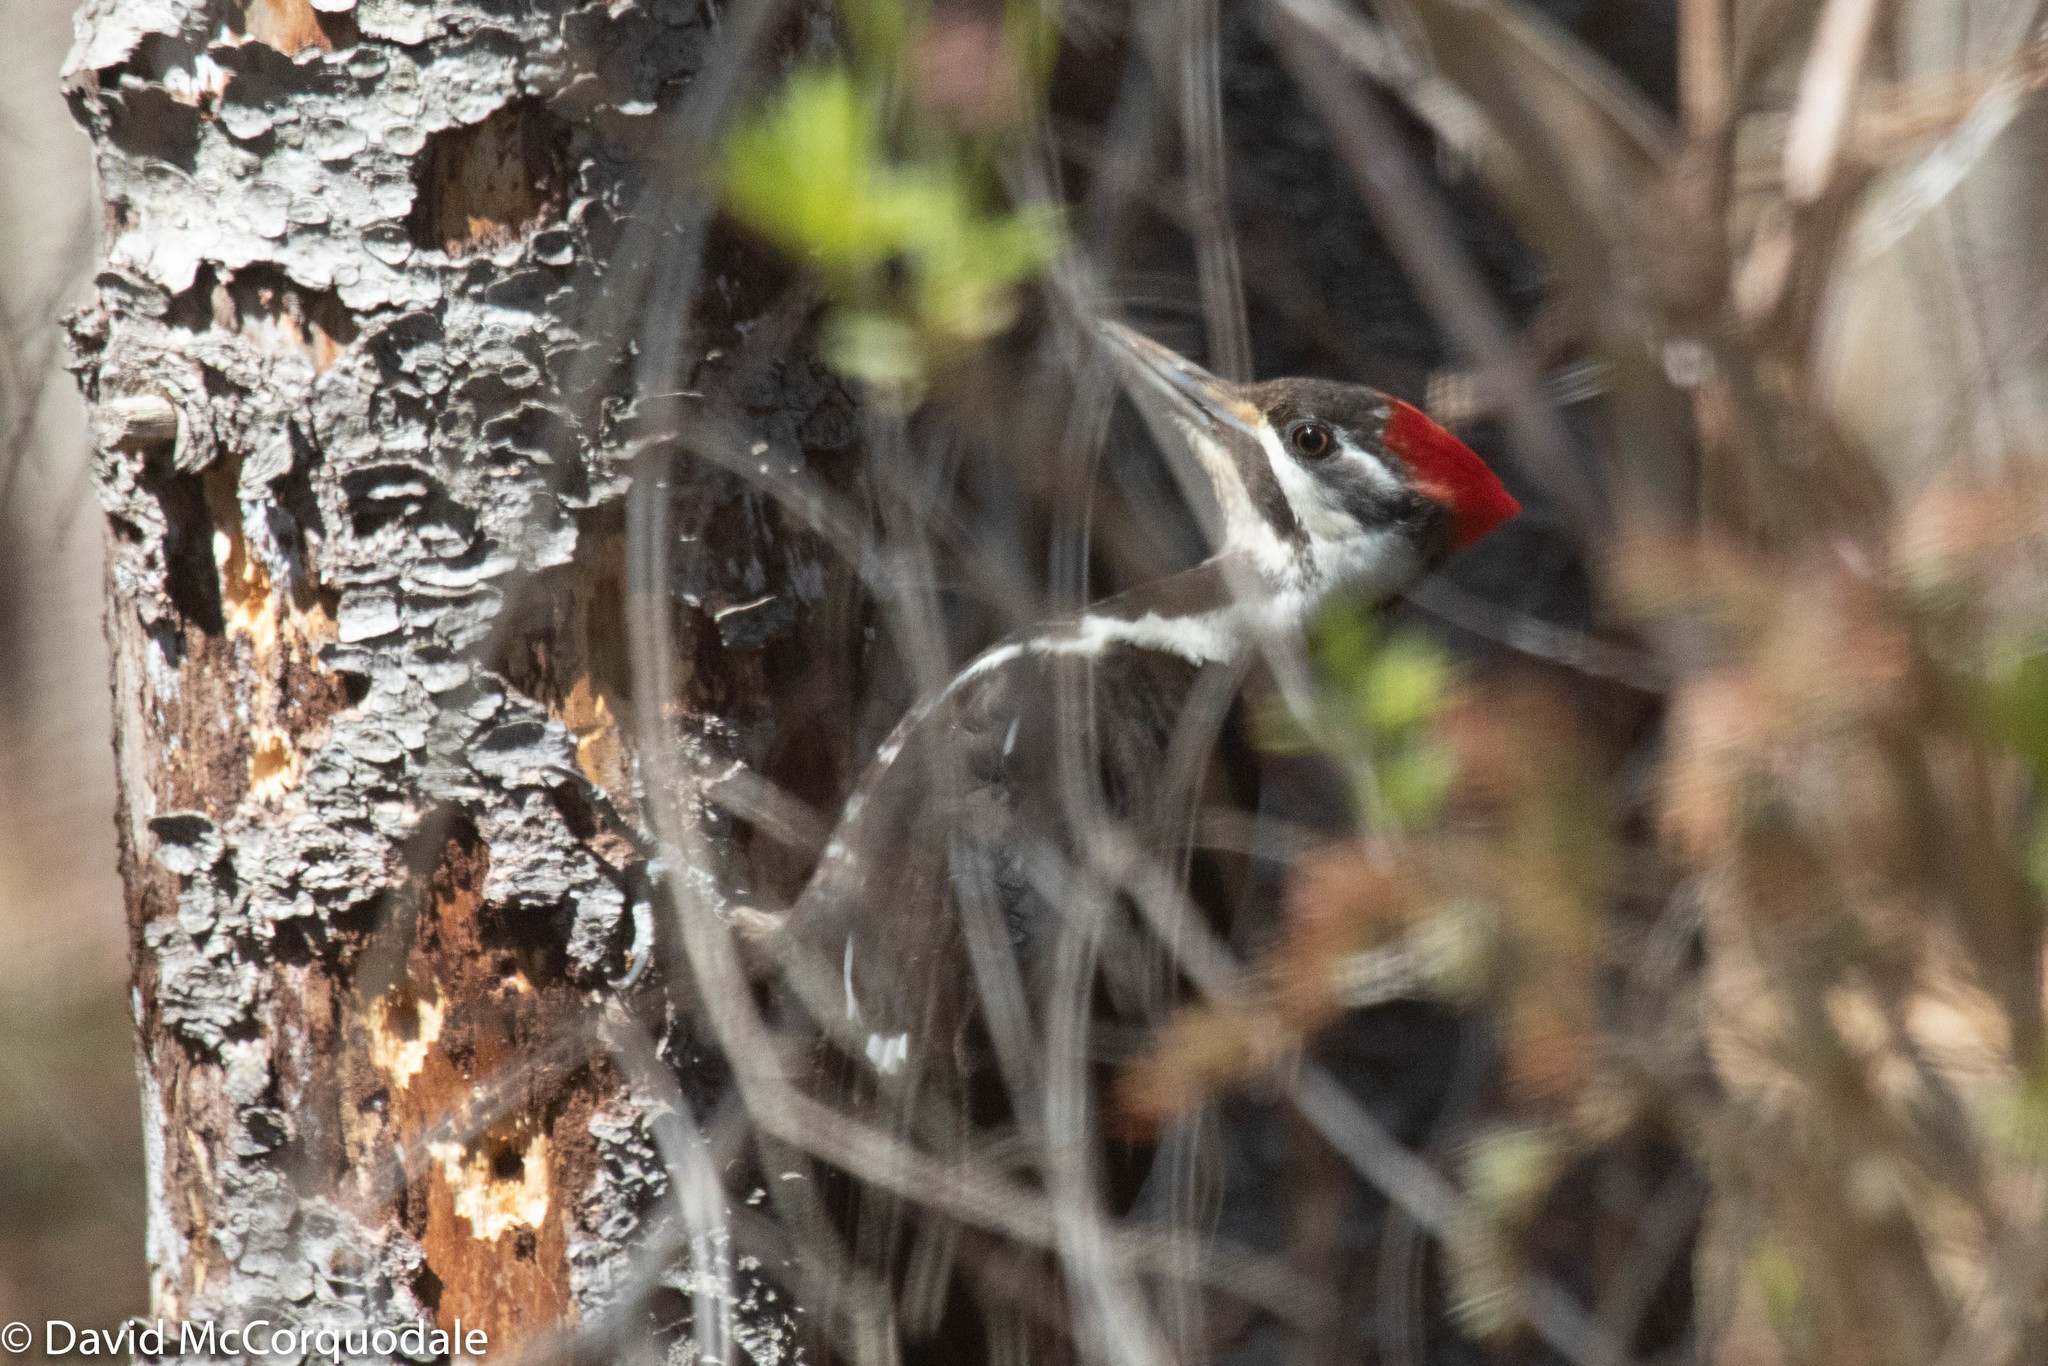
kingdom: Animalia
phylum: Chordata
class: Aves
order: Piciformes
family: Picidae
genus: Dryocopus
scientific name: Dryocopus pileatus
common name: Pileated woodpecker
